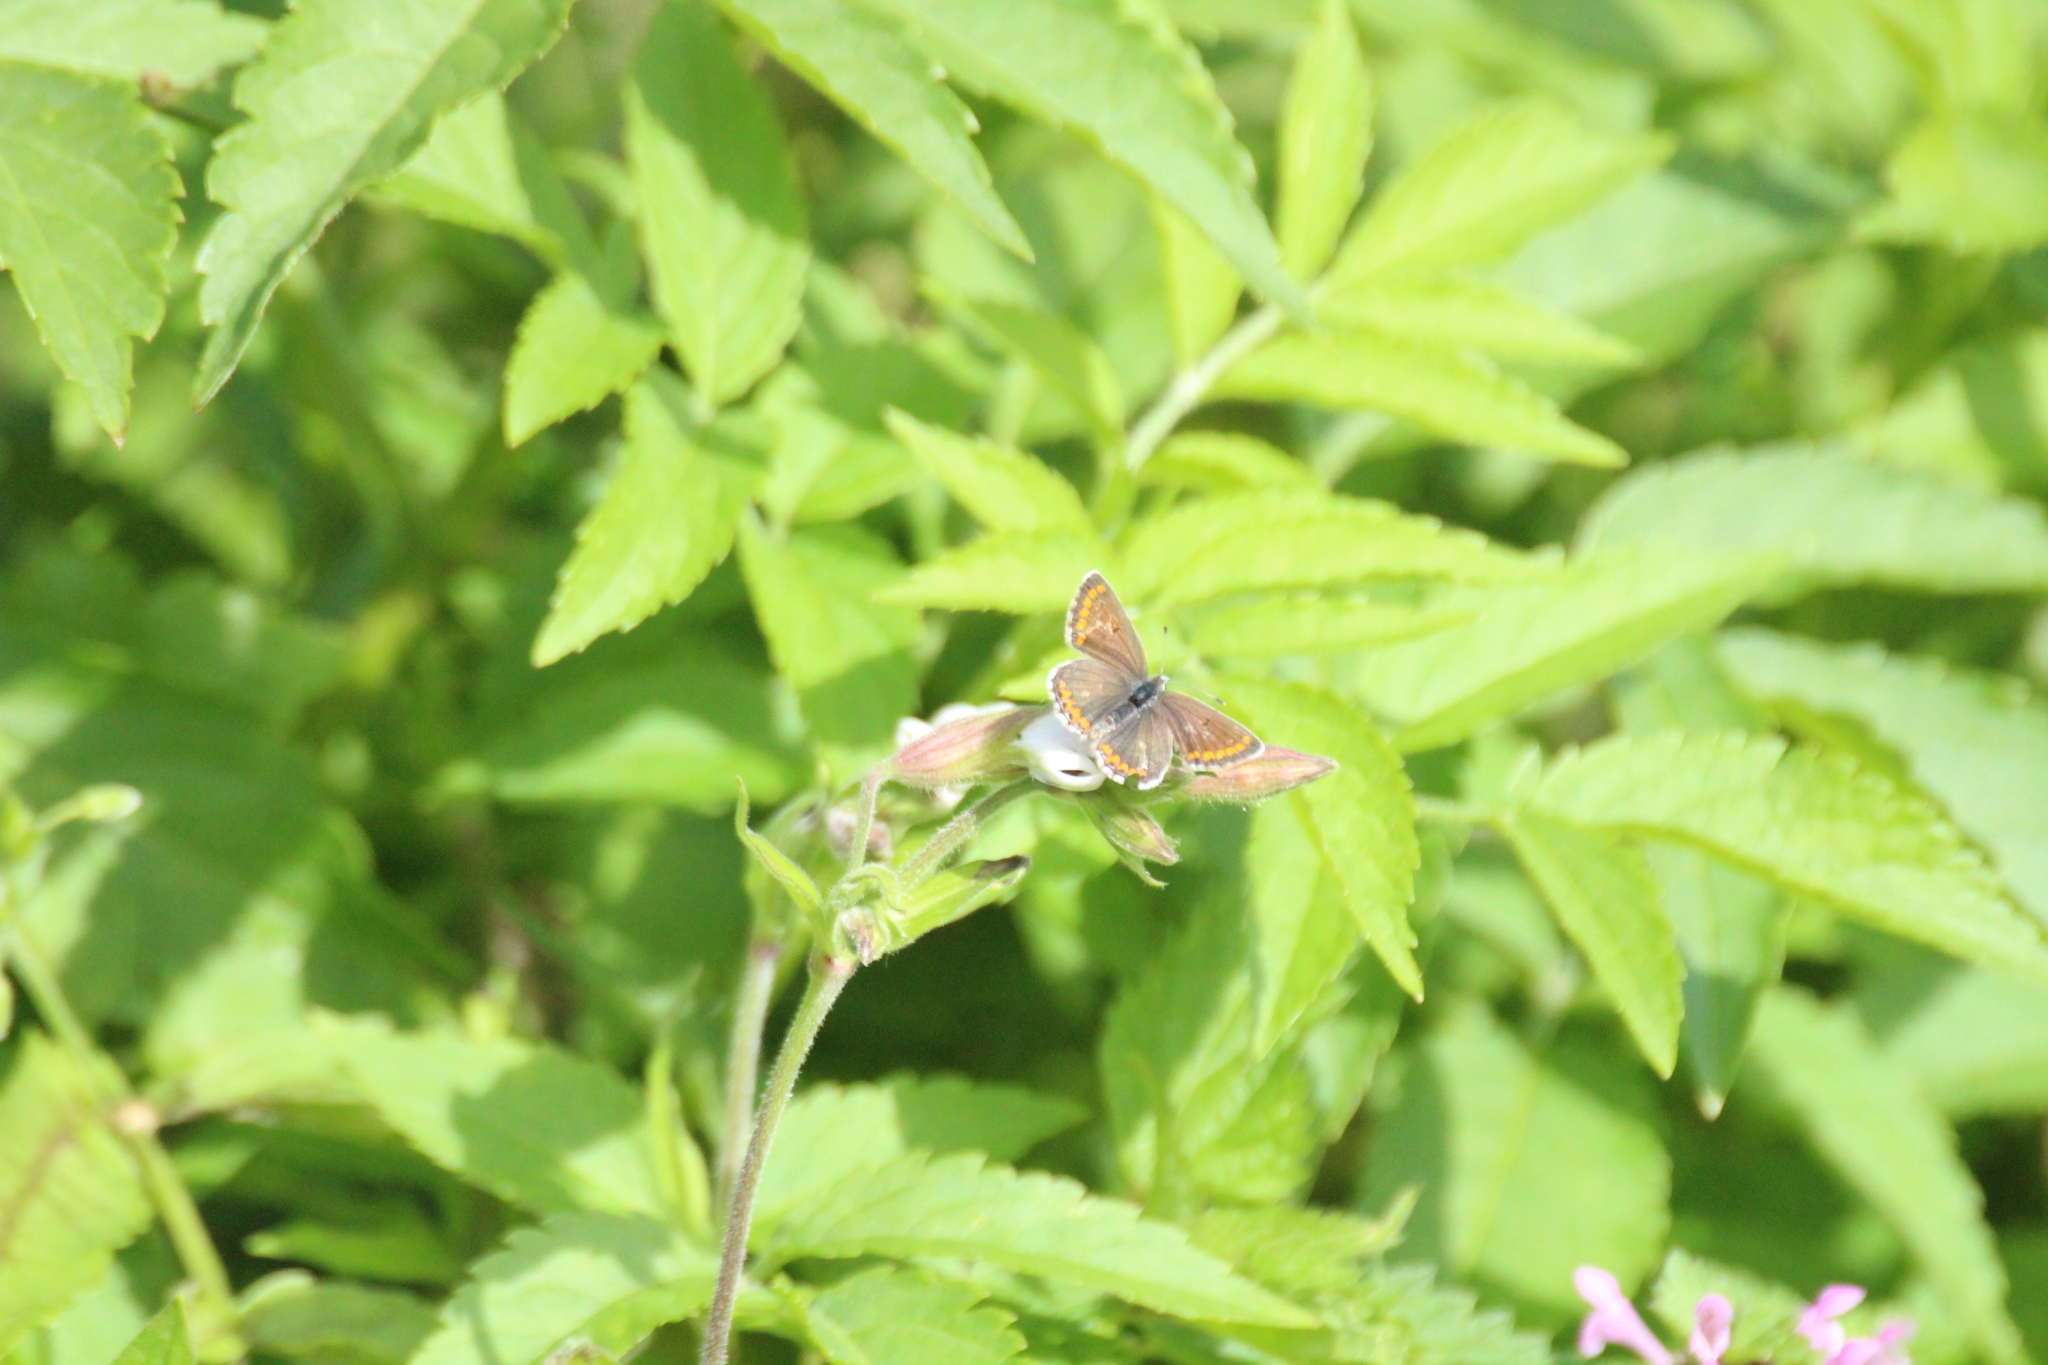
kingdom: Animalia
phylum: Arthropoda
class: Insecta
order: Lepidoptera
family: Lycaenidae
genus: Aricia
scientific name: Aricia agestis
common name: Brown argus
